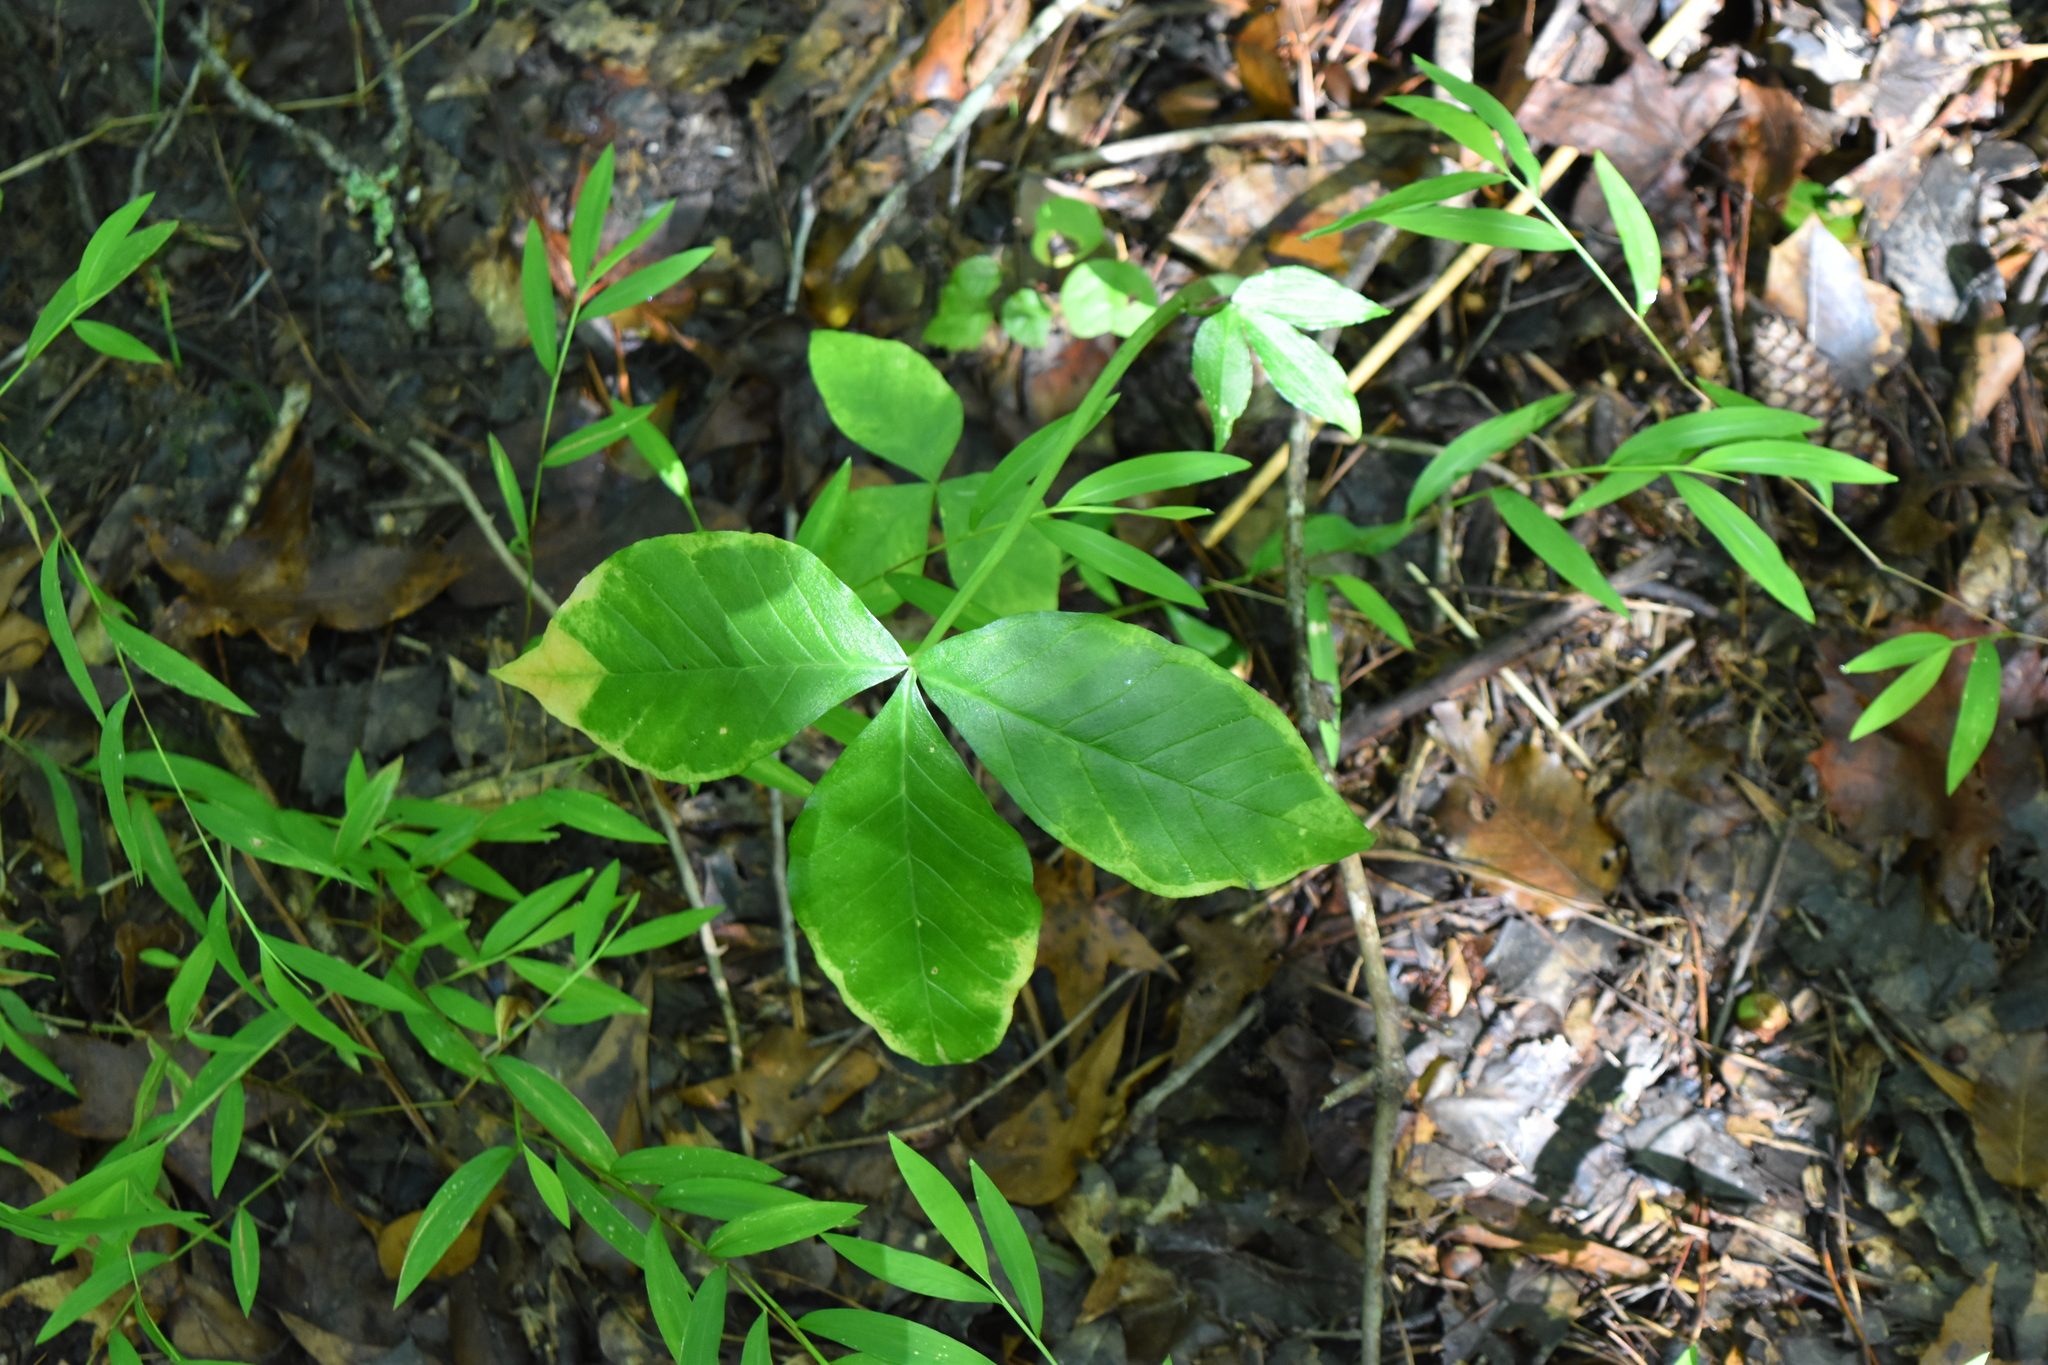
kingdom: Plantae
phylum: Tracheophyta
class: Liliopsida
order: Alismatales
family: Araceae
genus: Arisaema
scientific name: Arisaema triphyllum
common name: Jack-in-the-pulpit
